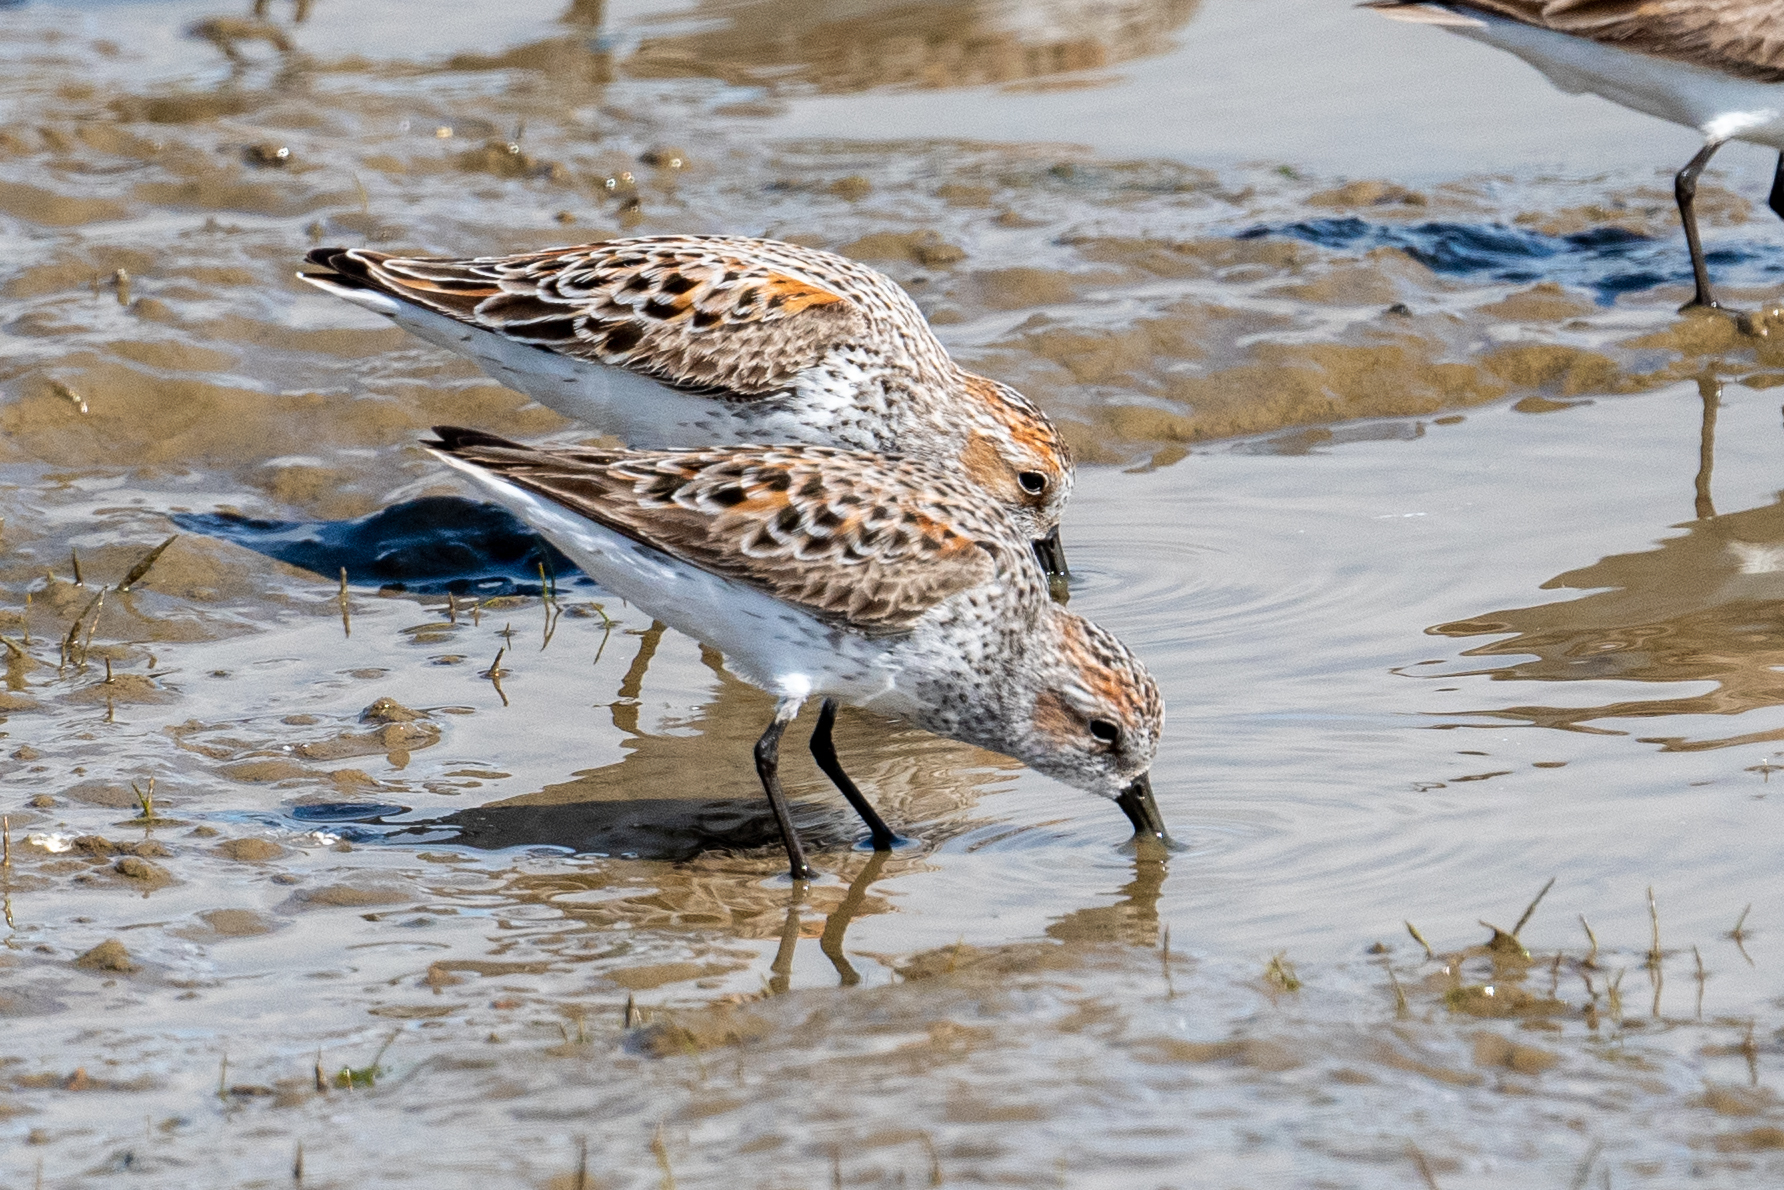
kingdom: Animalia
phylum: Chordata
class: Aves
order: Charadriiformes
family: Scolopacidae
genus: Calidris
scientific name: Calidris mauri
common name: Western sandpiper
